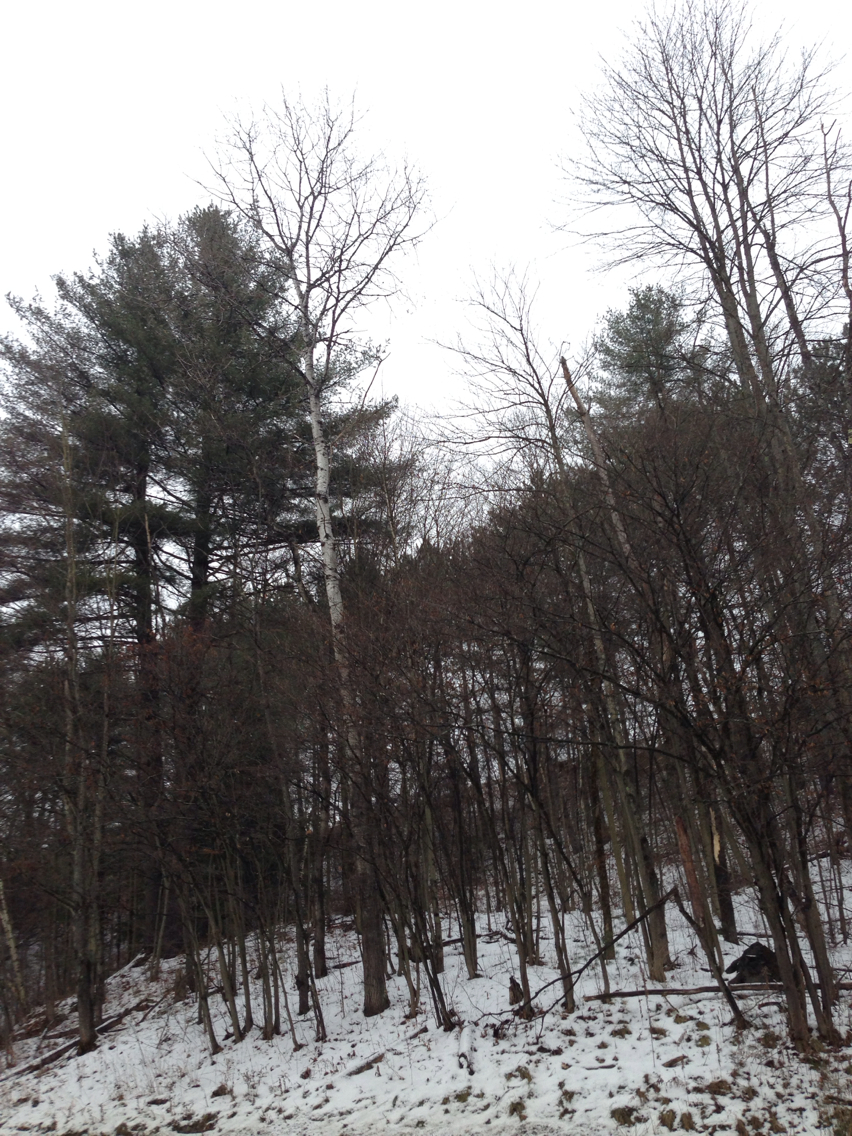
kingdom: Plantae
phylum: Tracheophyta
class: Magnoliopsida
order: Malpighiales
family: Salicaceae
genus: Populus
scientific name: Populus tremuloides
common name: Quaking aspen
